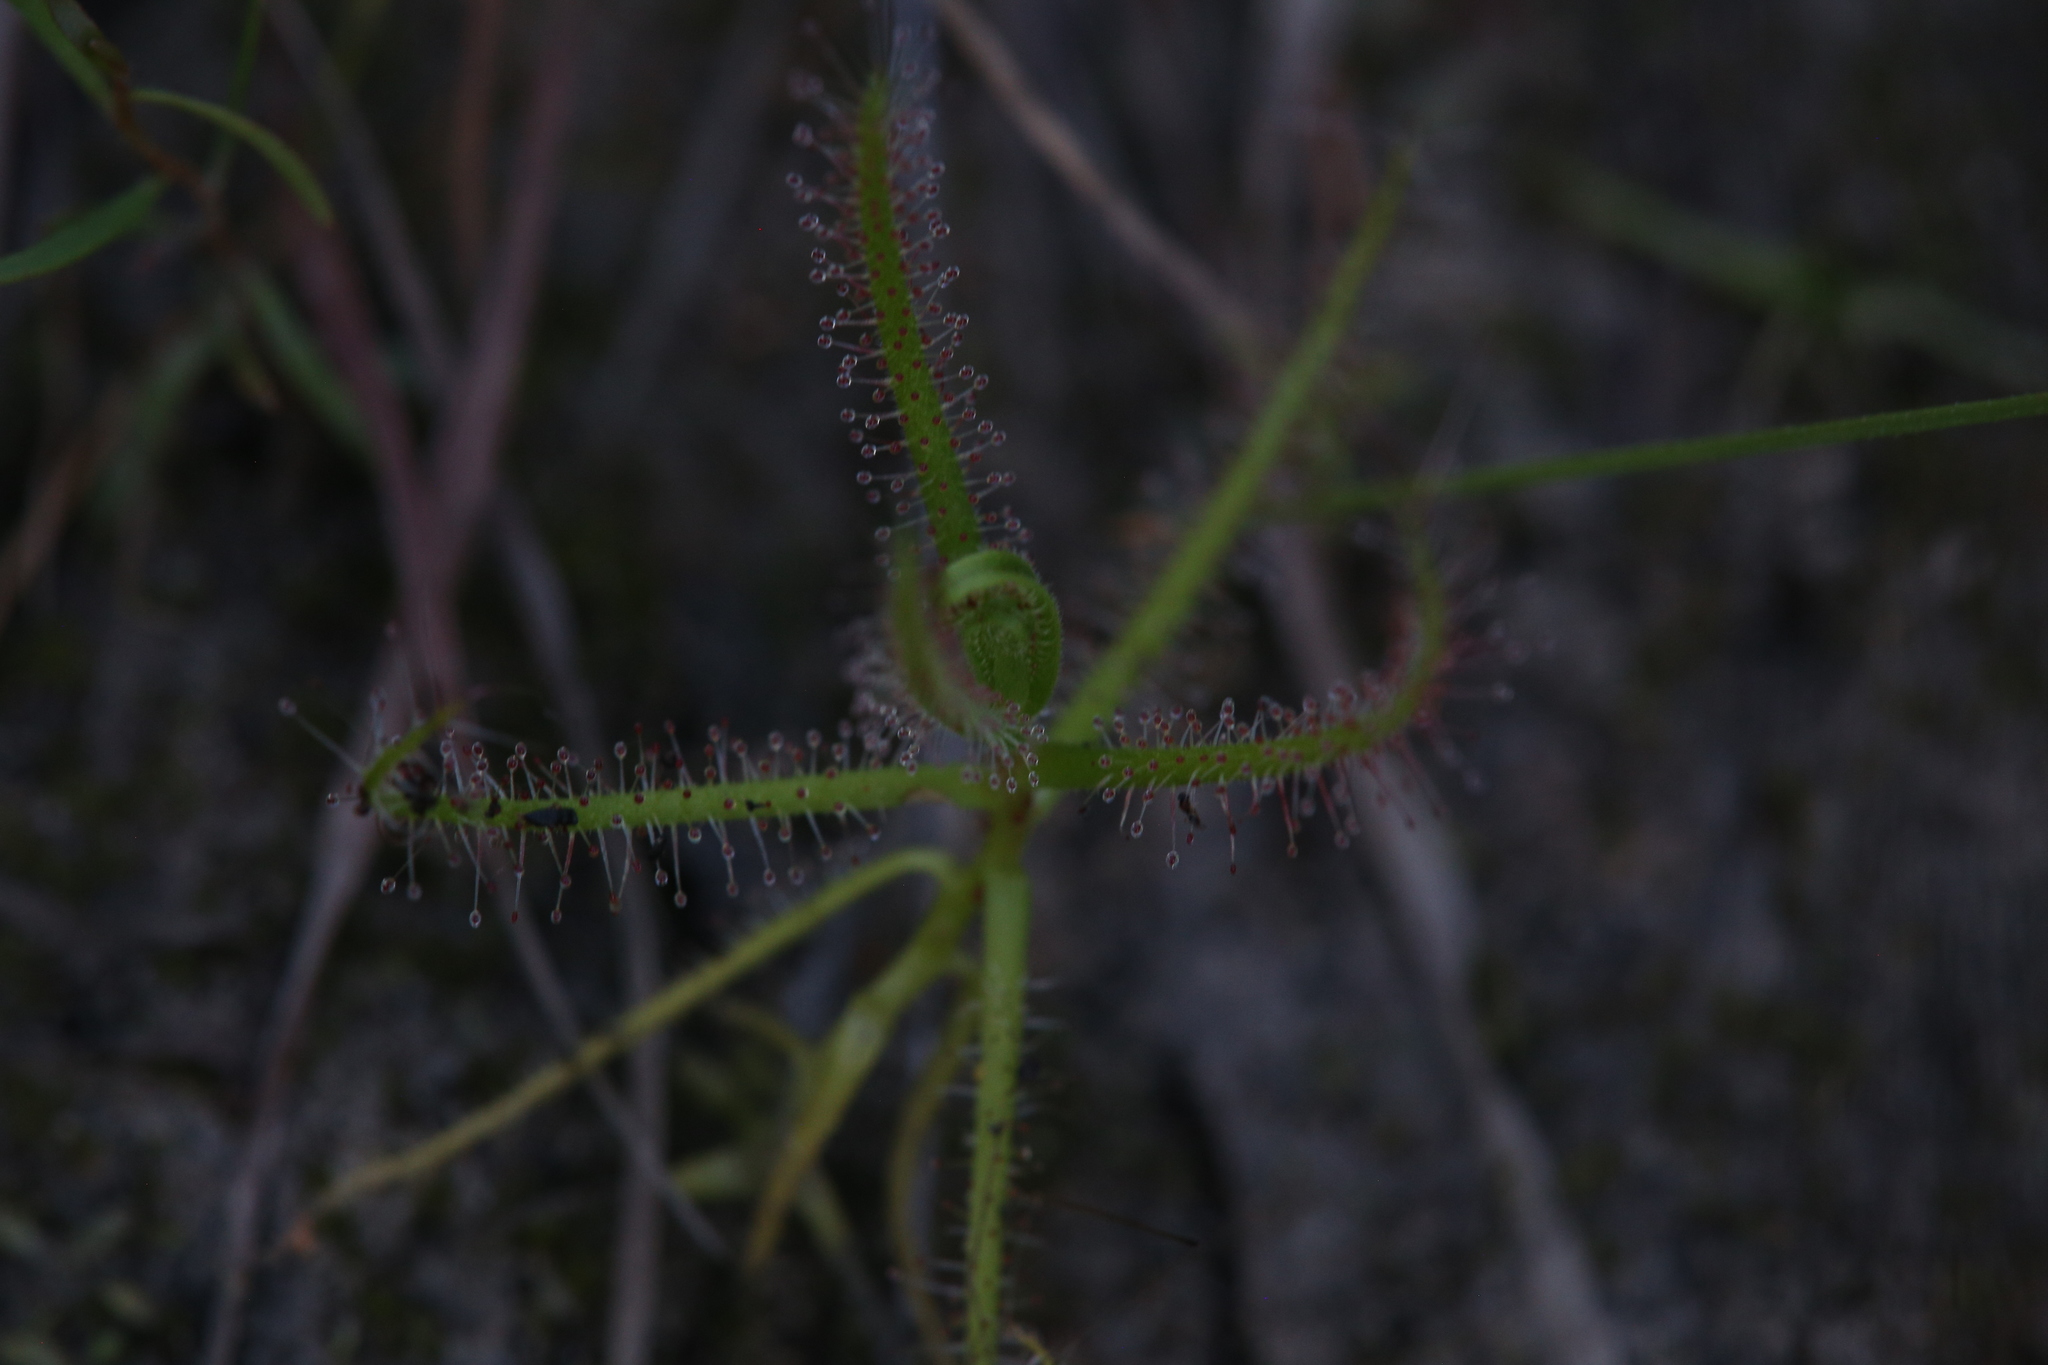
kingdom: Plantae
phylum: Tracheophyta
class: Magnoliopsida
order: Caryophyllales
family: Droseraceae
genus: Drosera
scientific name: Drosera aquatica
